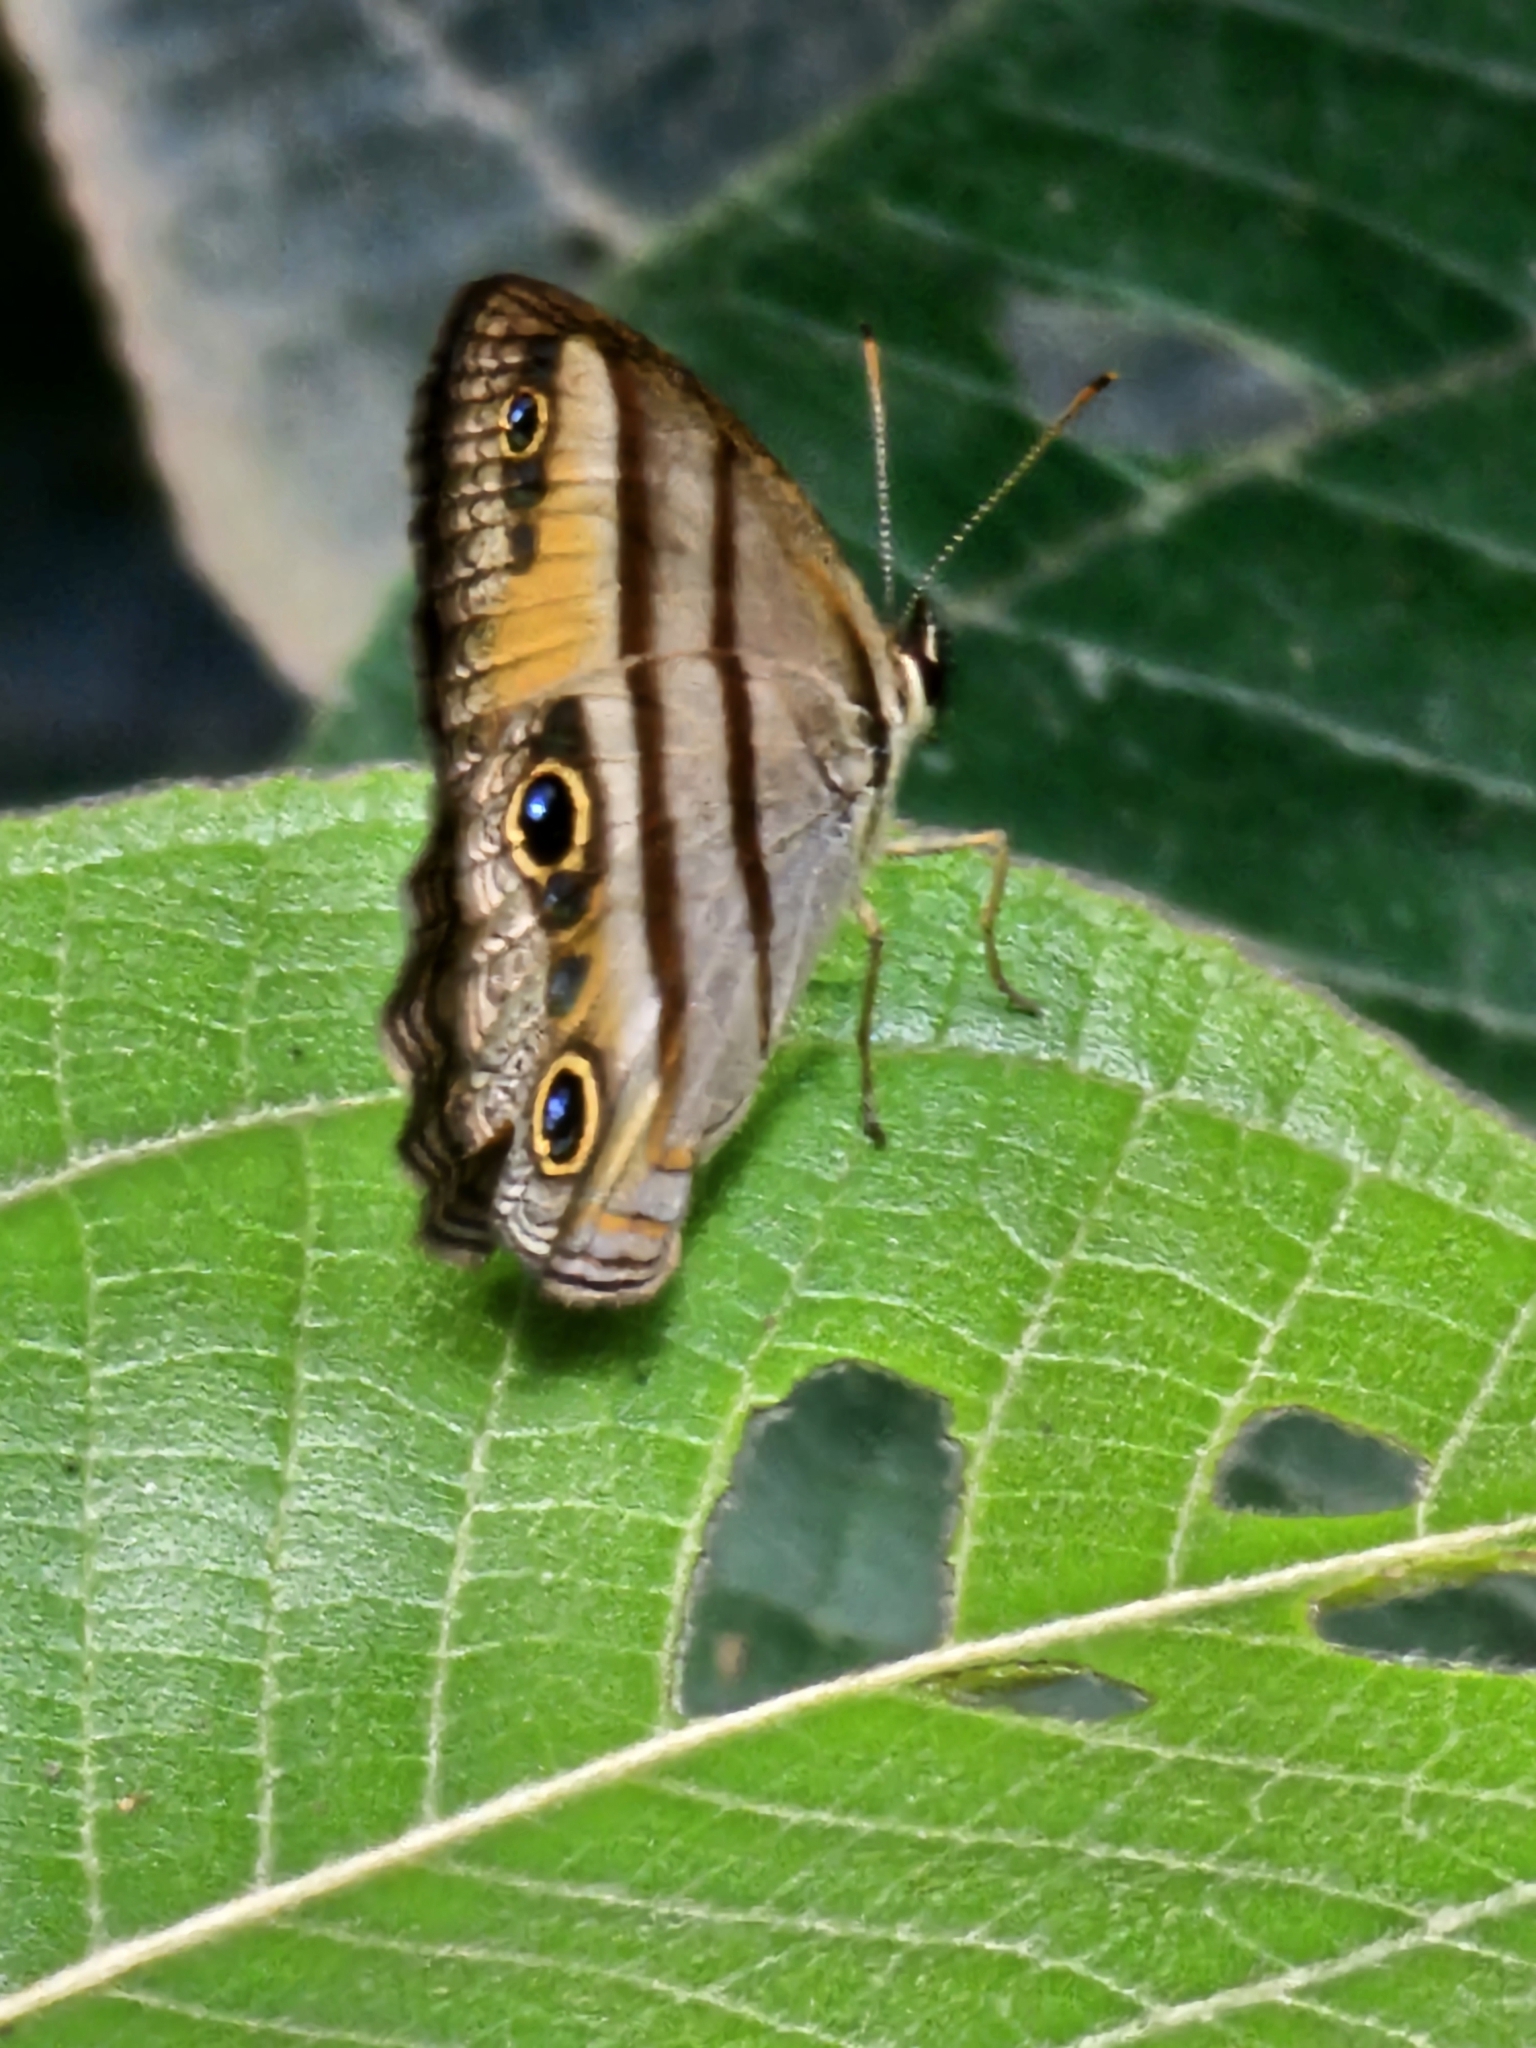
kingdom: Animalia
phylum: Arthropoda
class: Insecta
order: Lepidoptera
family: Nymphalidae
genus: Argyreuptychia
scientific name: Argyreuptychia penelope
